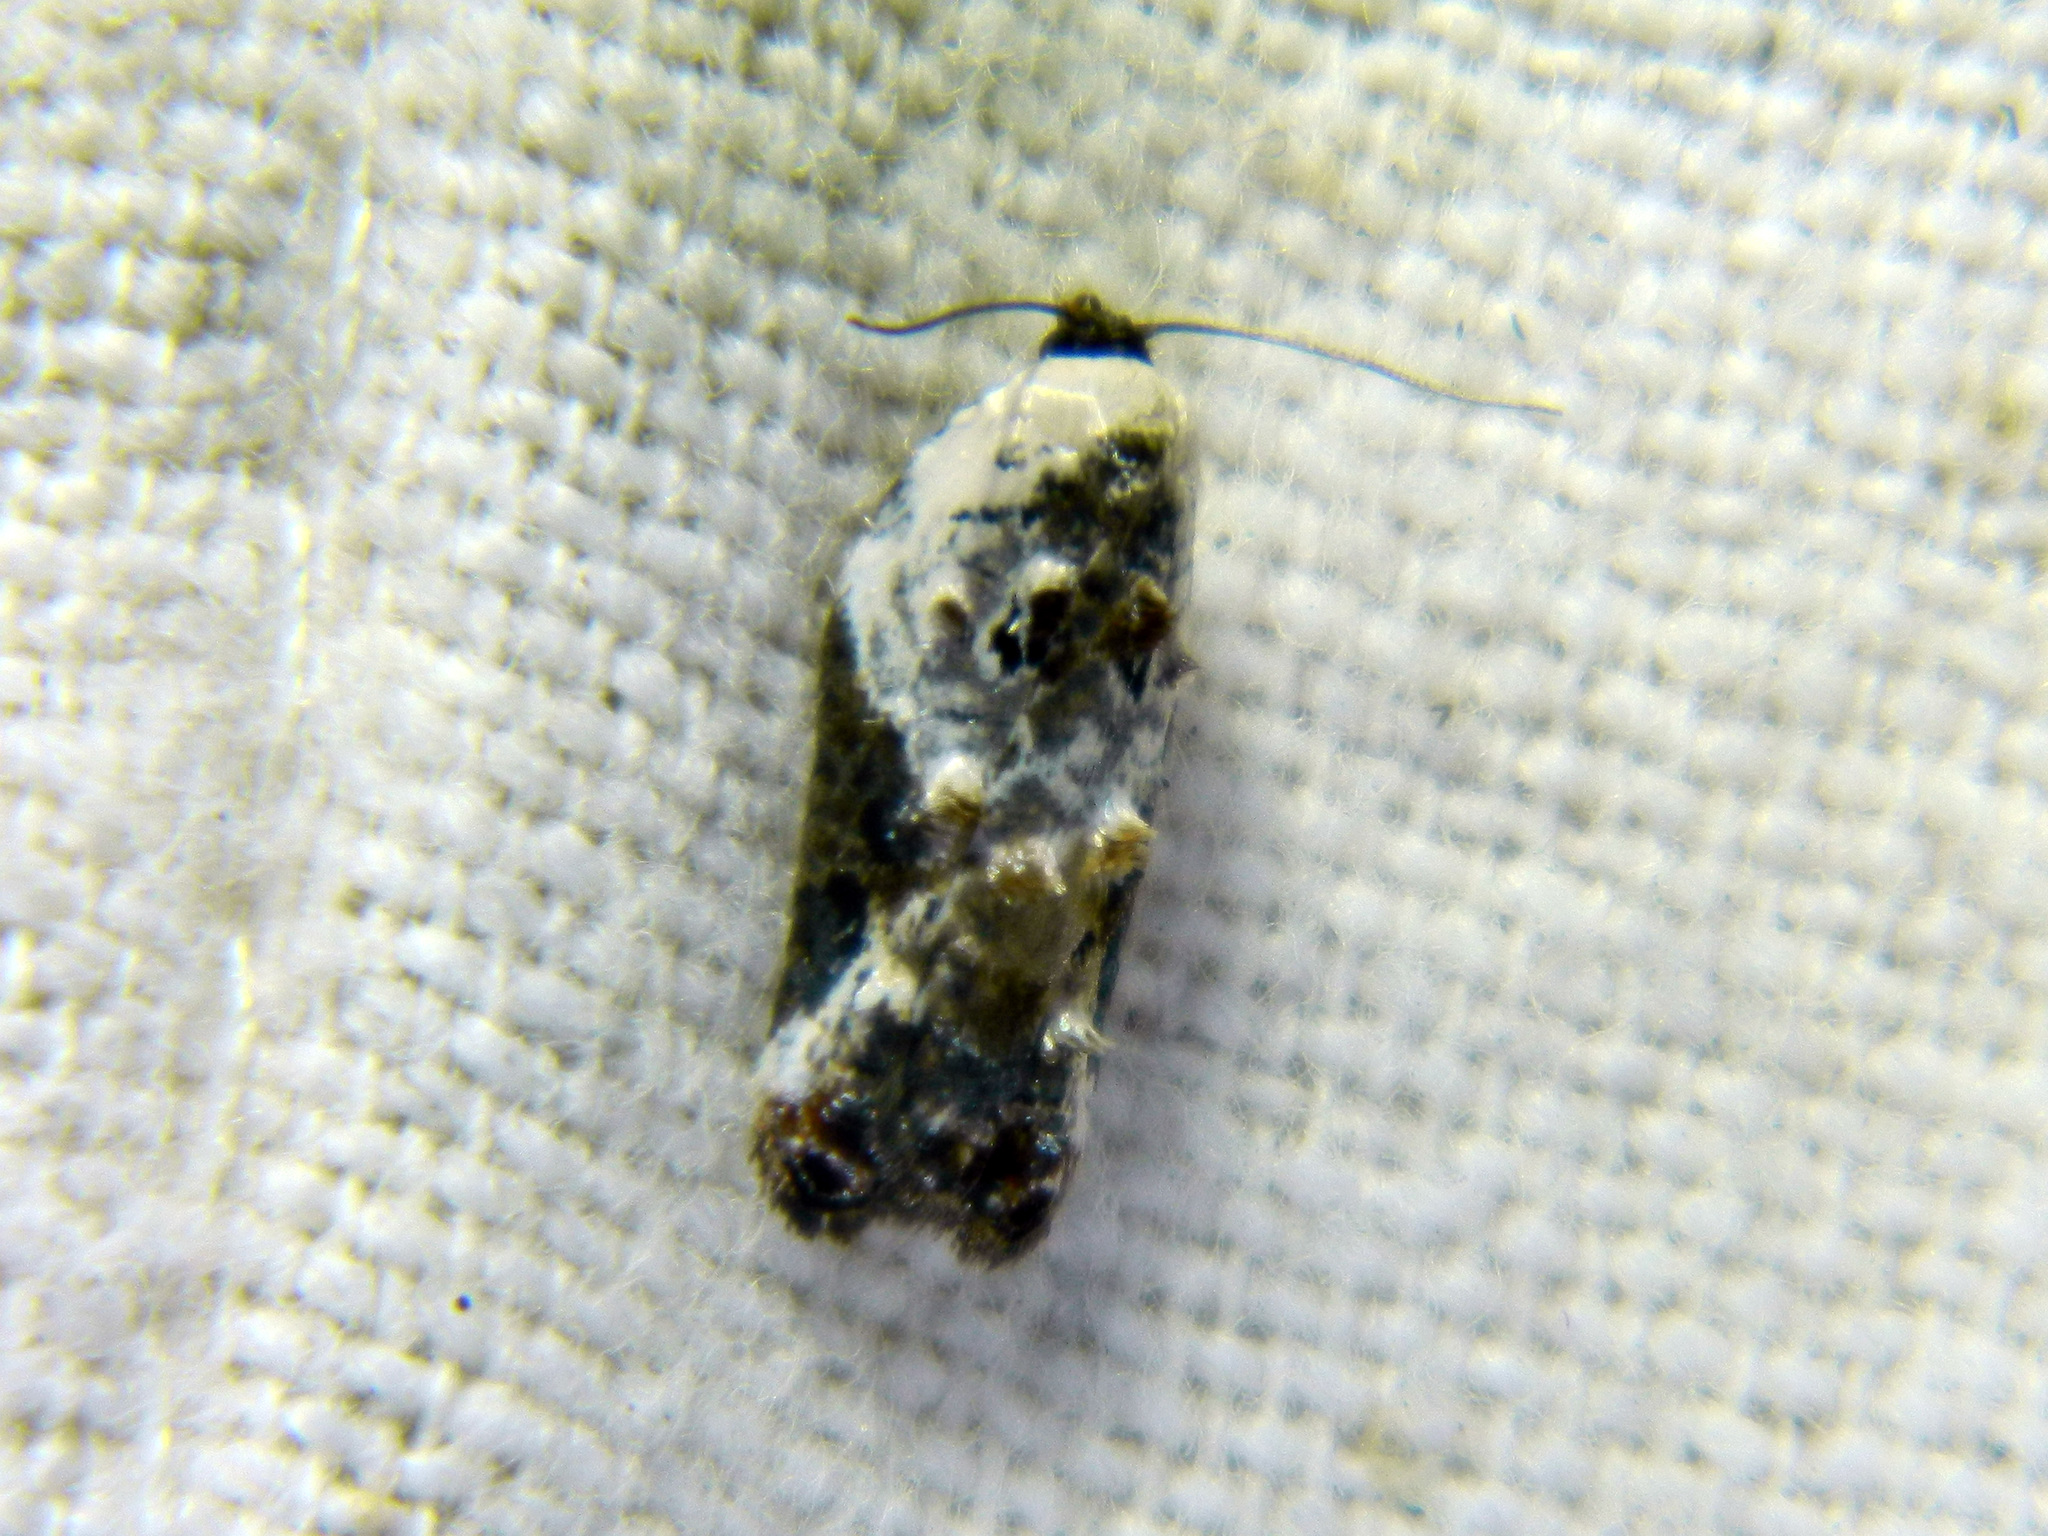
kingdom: Animalia
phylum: Arthropoda
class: Insecta
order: Lepidoptera
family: Tortricidae
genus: Acleris
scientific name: Acleris nivisellana
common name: Snowy-shouldered acleris moth
